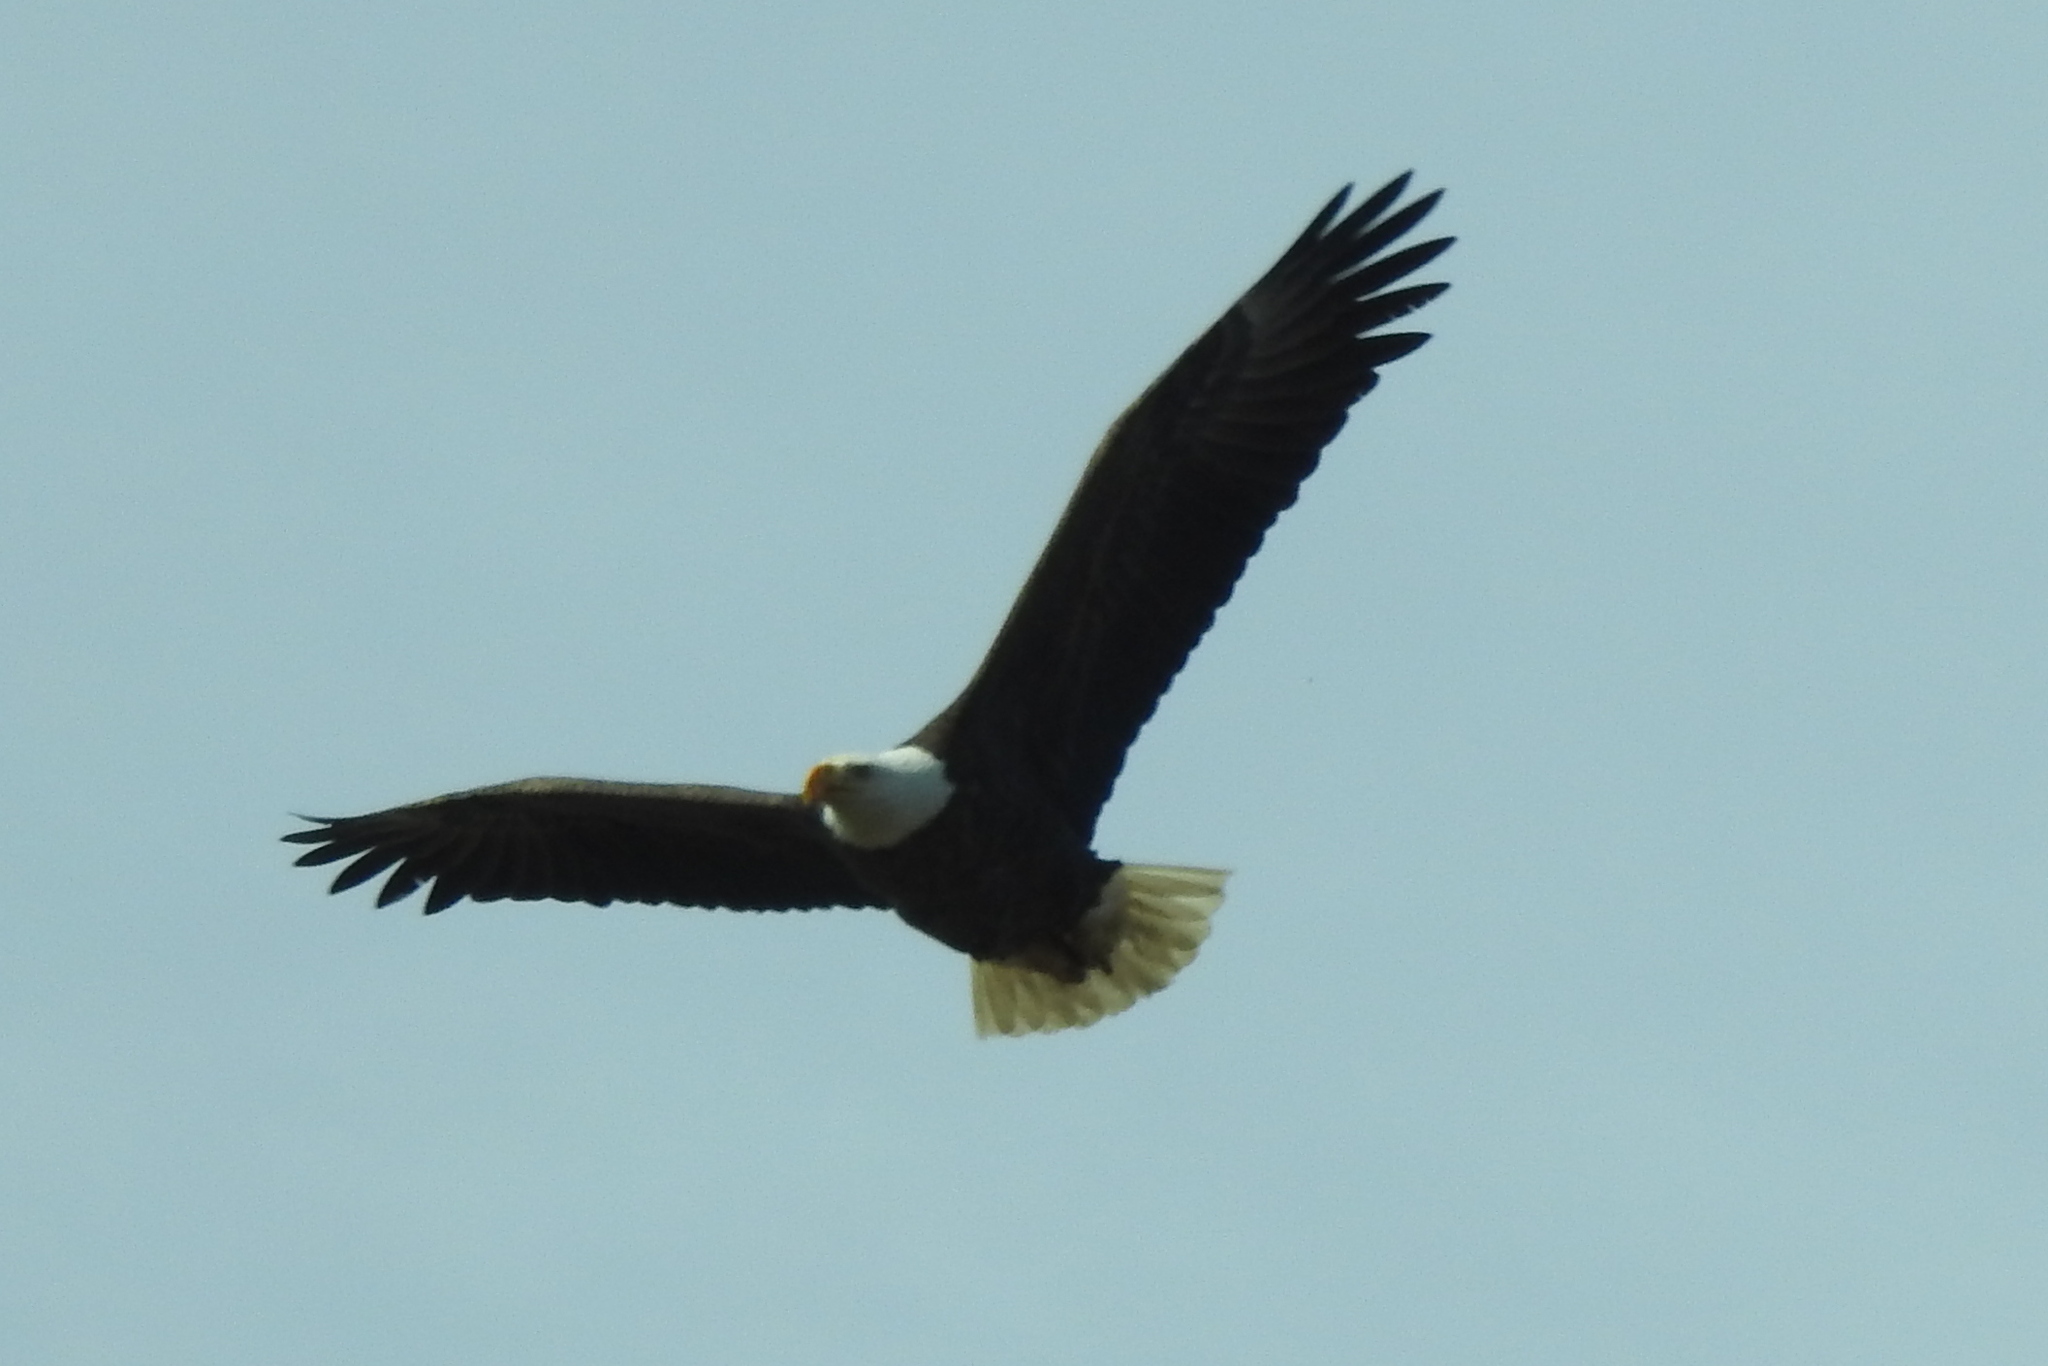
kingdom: Animalia
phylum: Chordata
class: Aves
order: Accipitriformes
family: Accipitridae
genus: Haliaeetus
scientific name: Haliaeetus leucocephalus
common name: Bald eagle
